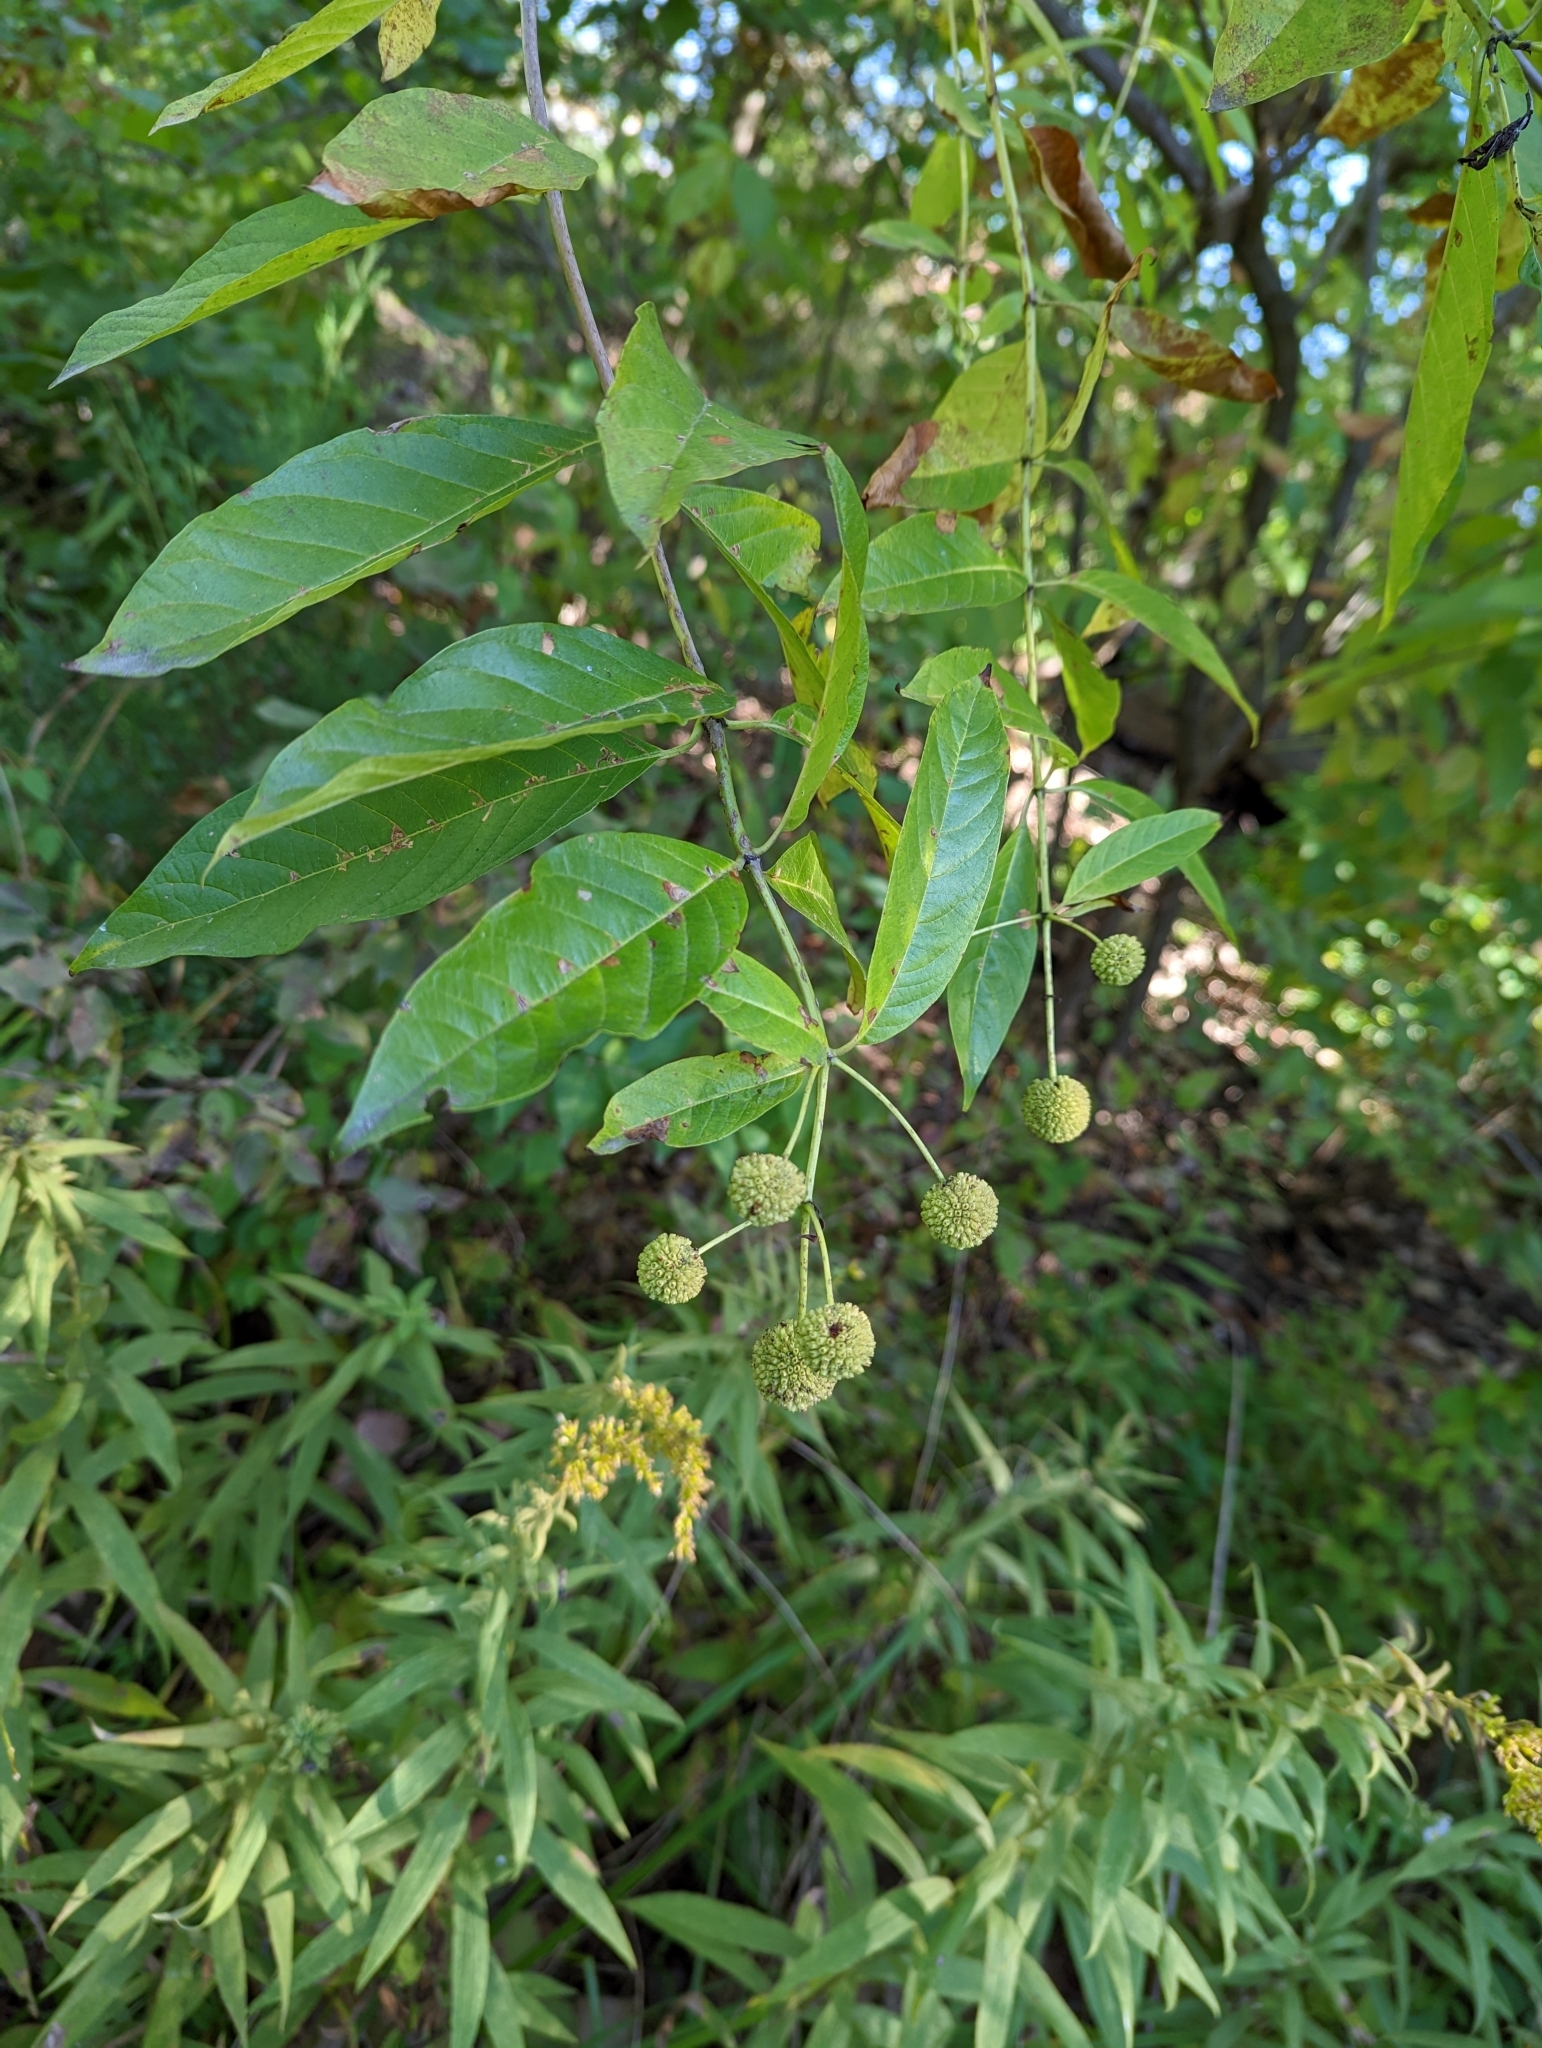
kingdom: Plantae
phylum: Tracheophyta
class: Magnoliopsida
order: Gentianales
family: Rubiaceae
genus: Cephalanthus
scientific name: Cephalanthus occidentalis
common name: Button-willow
